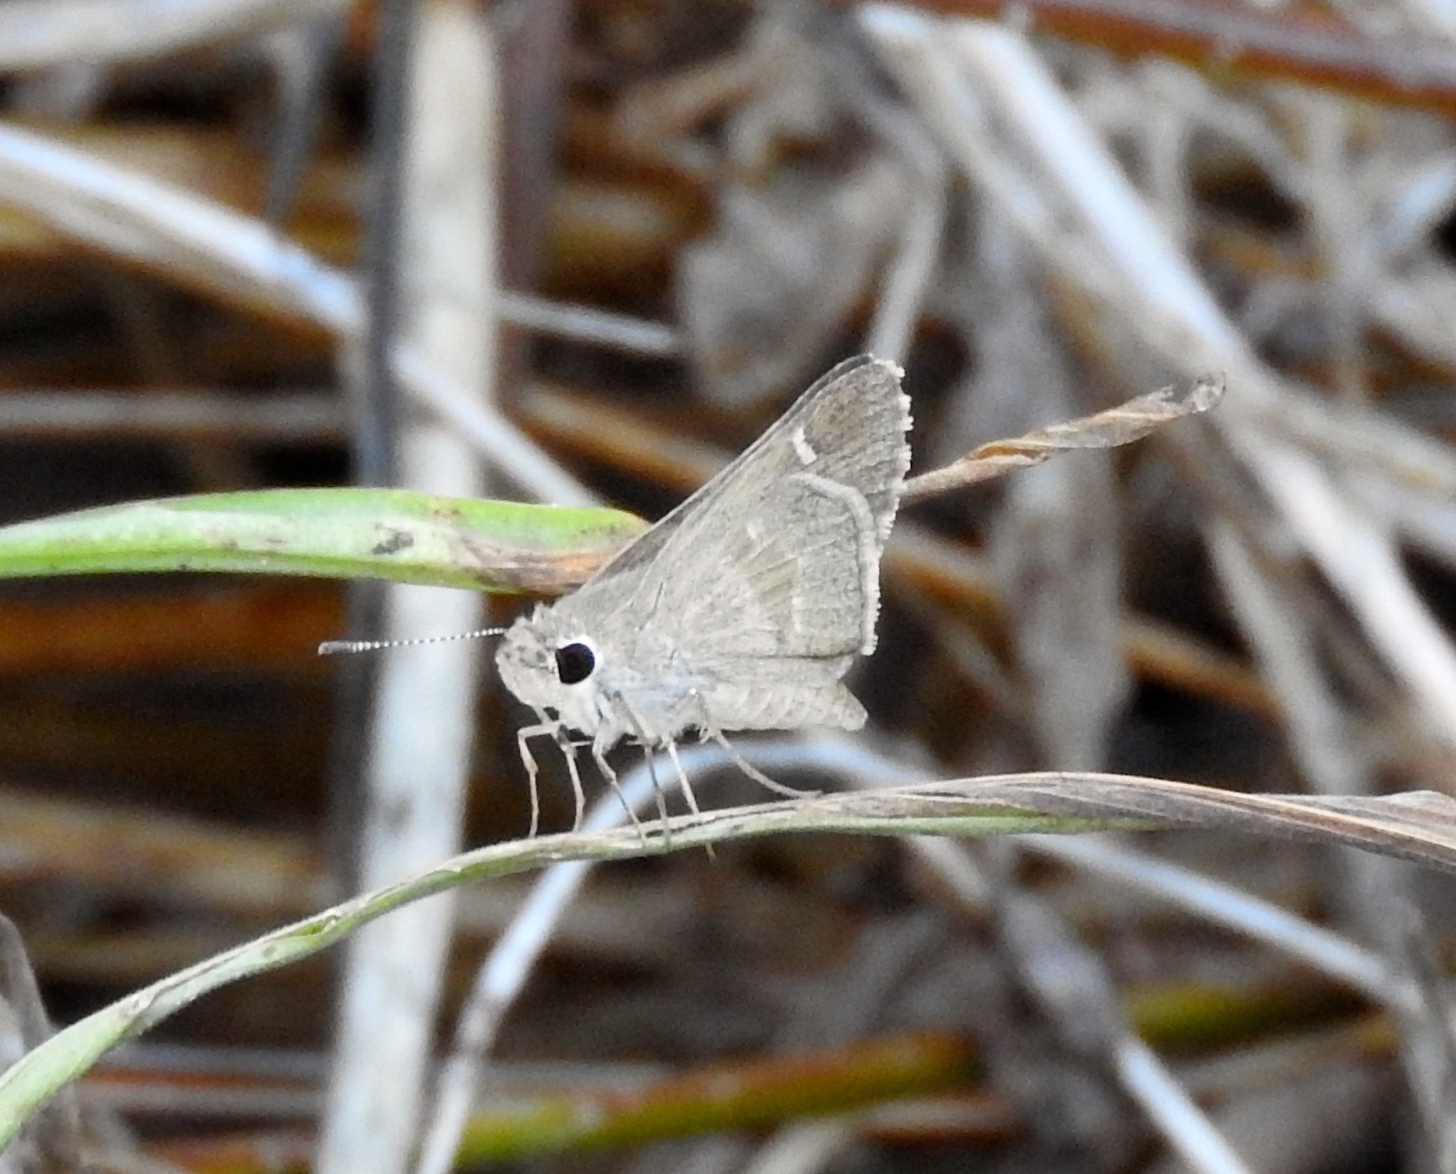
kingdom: Animalia
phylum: Arthropoda
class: Insecta
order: Lepidoptera
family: Hesperiidae
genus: Lerodea
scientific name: Lerodea arabus
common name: Violet-clouded skipper
